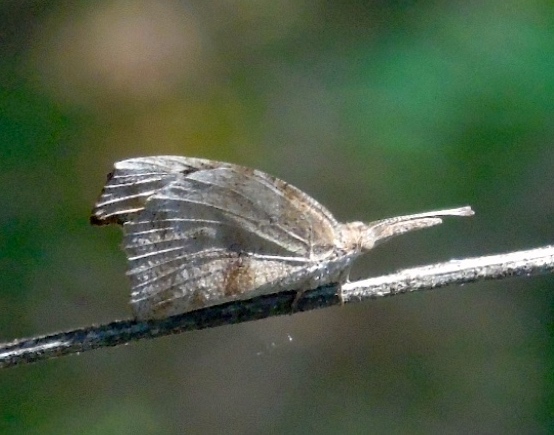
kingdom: Animalia
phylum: Arthropoda
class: Insecta
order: Lepidoptera
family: Nymphalidae
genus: Libytheana
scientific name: Libytheana carinenta
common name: American snout
